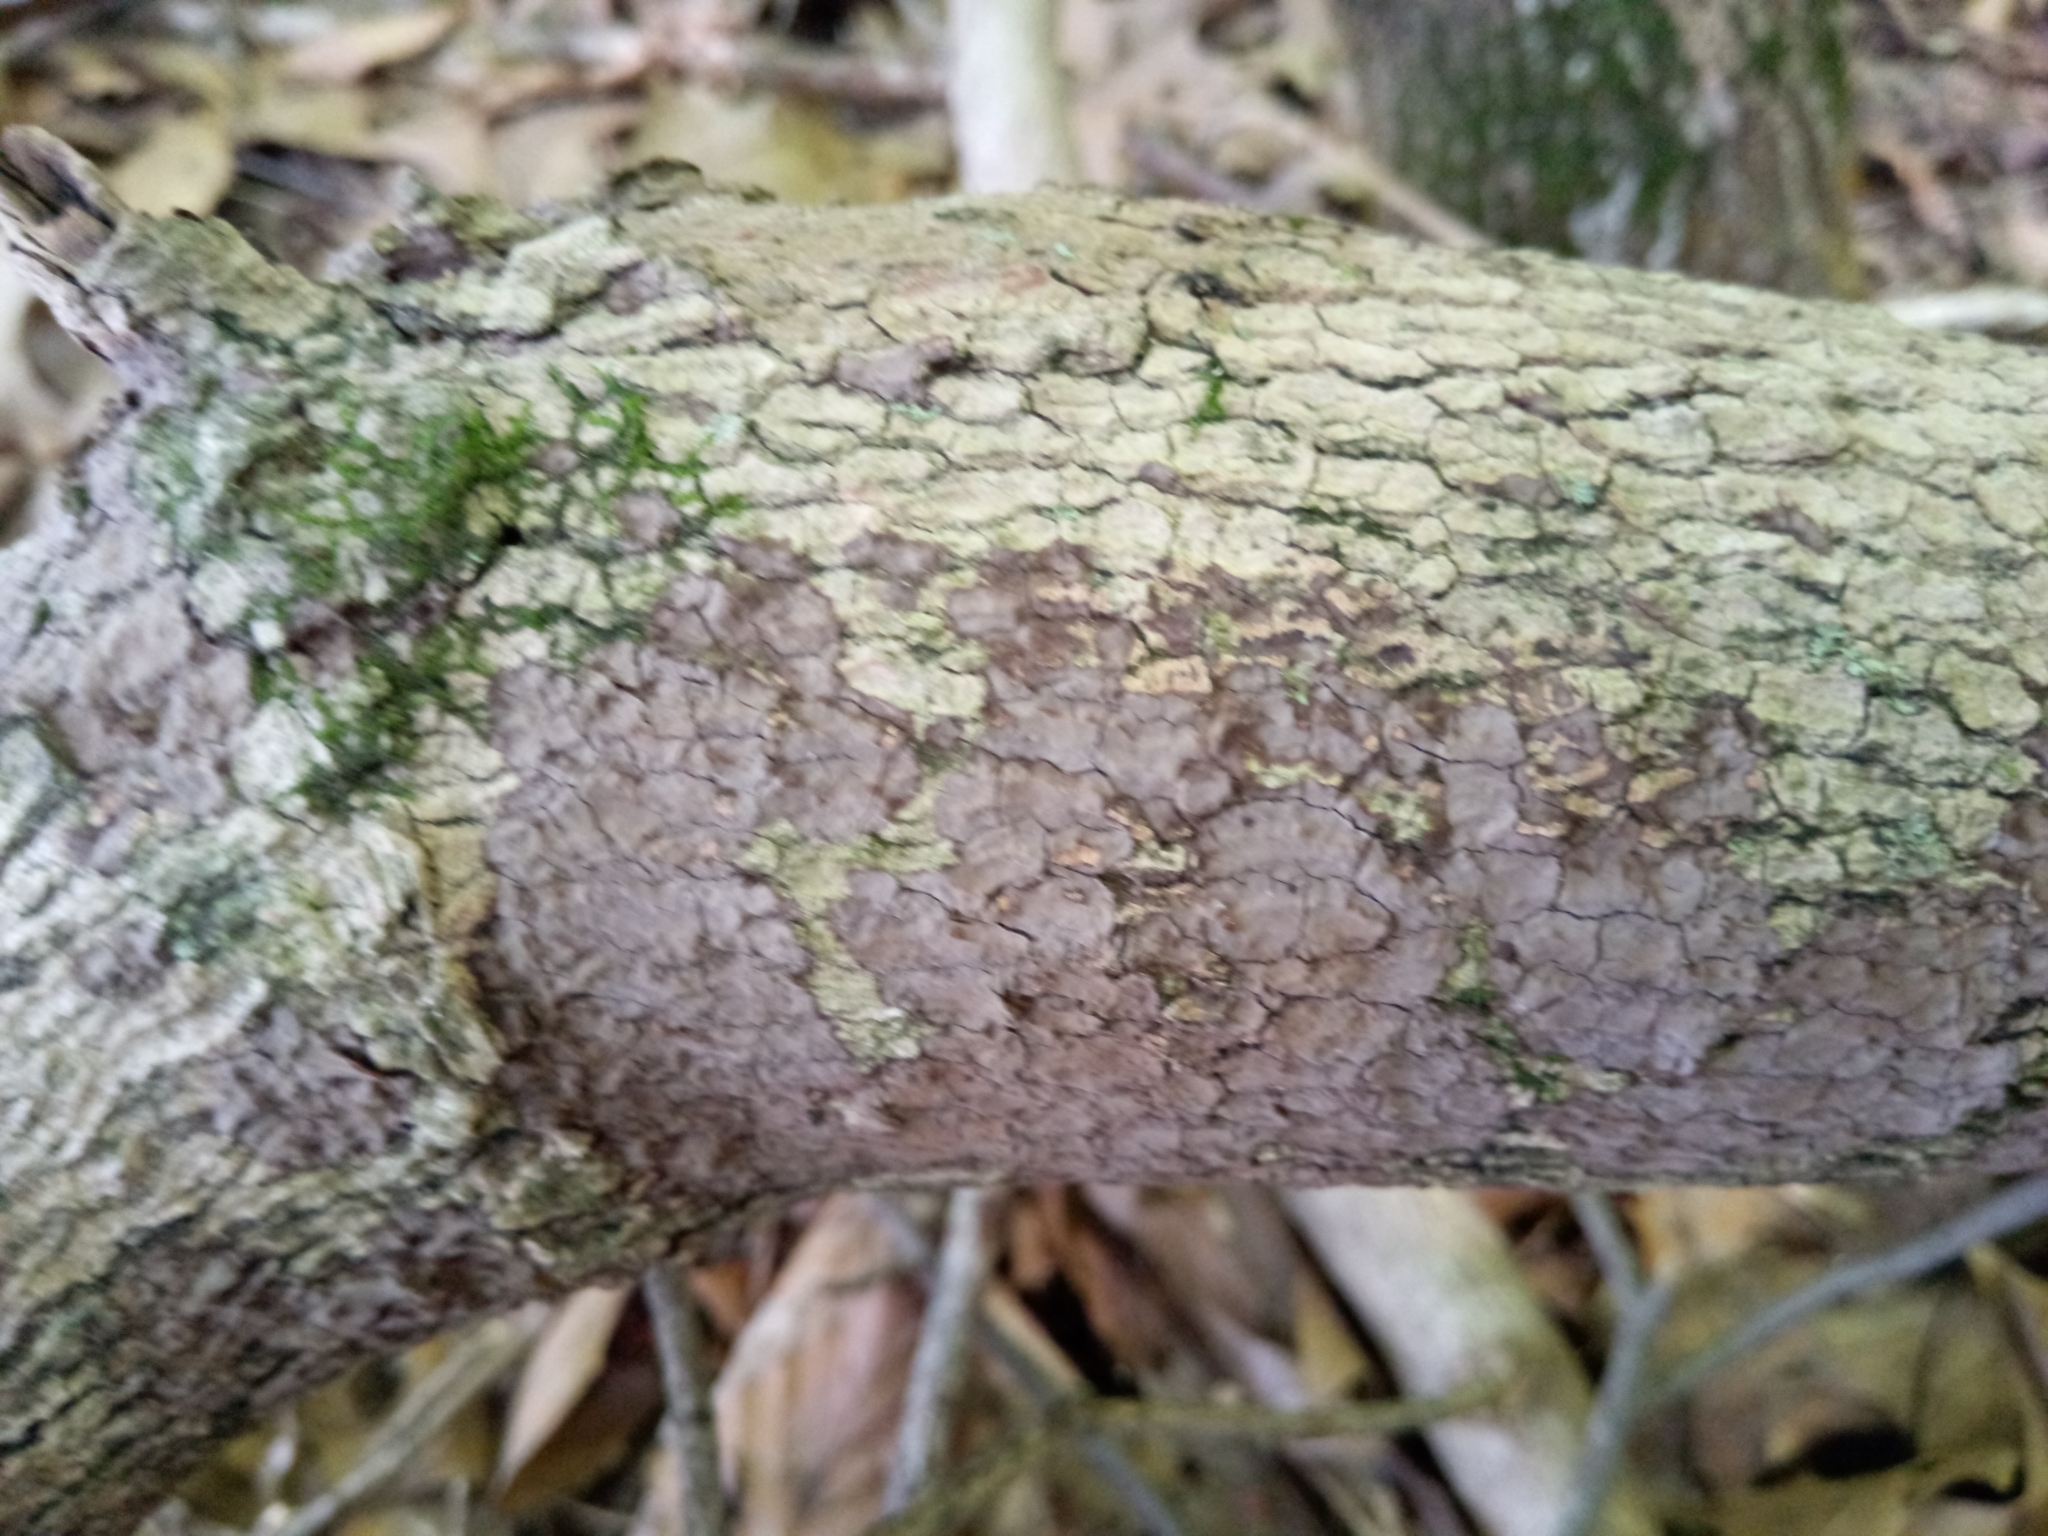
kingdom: Fungi
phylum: Basidiomycota
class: Agaricomycetes
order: Hymenochaetales
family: Hymenochaetaceae
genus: Hymenochaete
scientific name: Hymenochaete odontoides
